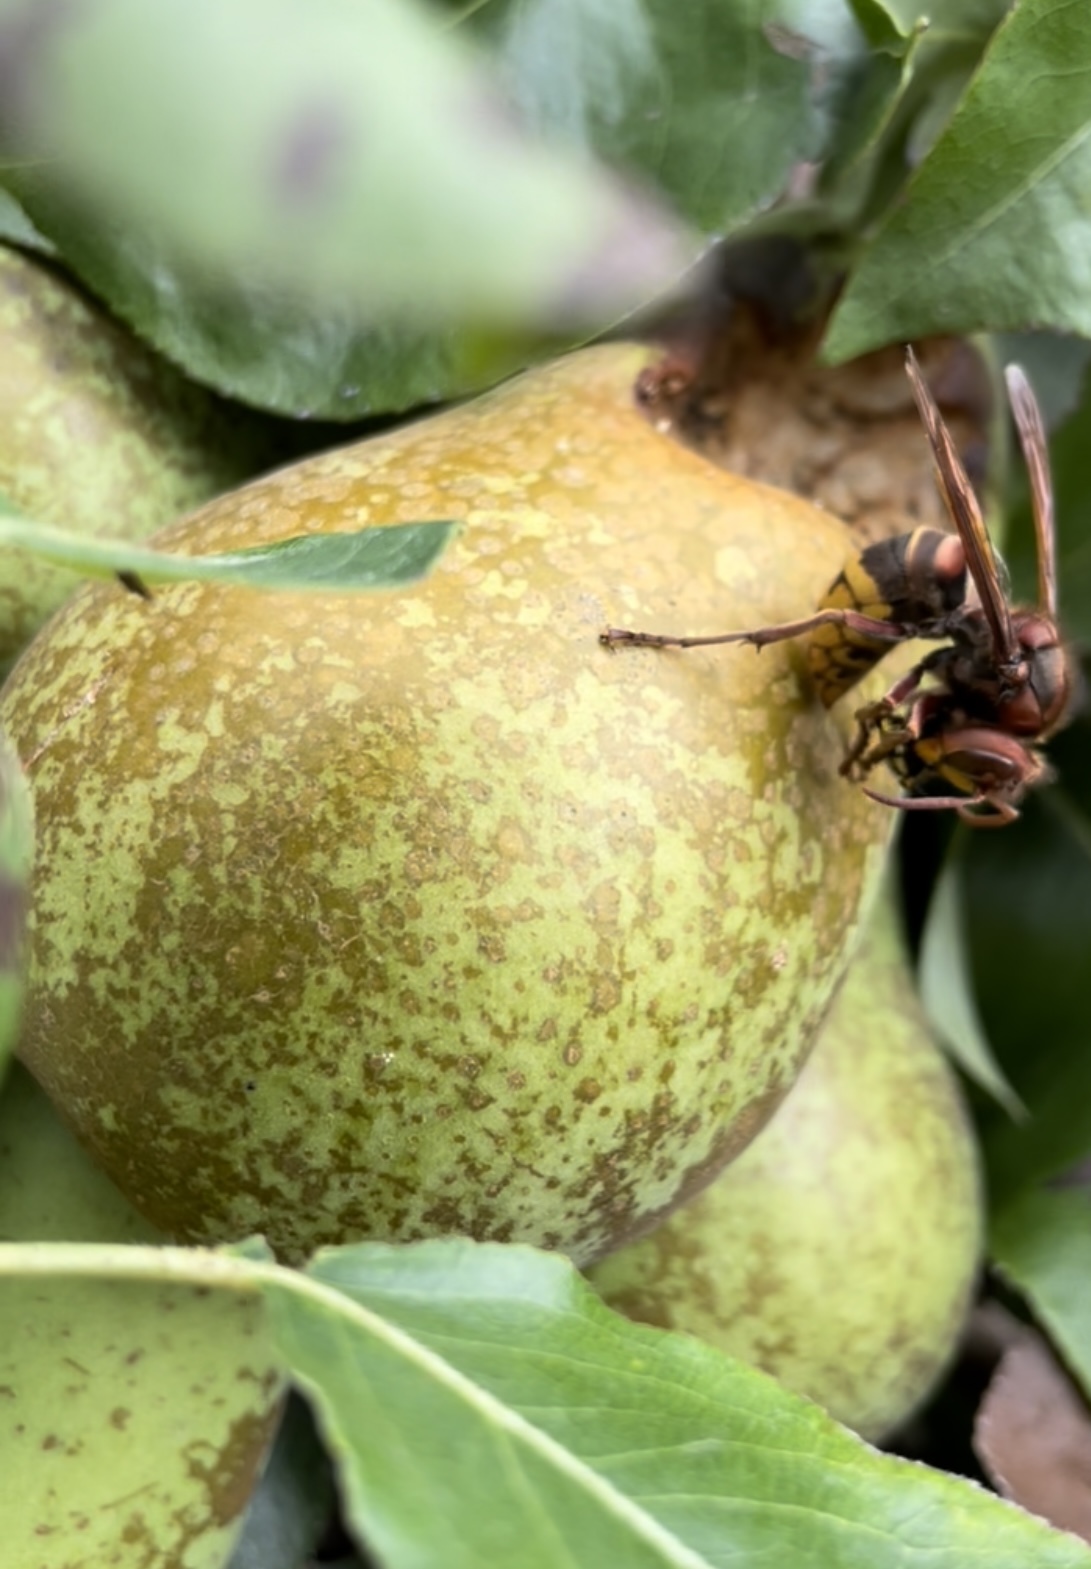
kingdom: Animalia
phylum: Arthropoda
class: Insecta
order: Hymenoptera
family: Vespidae
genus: Vespa
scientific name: Vespa crabro
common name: Hornet
